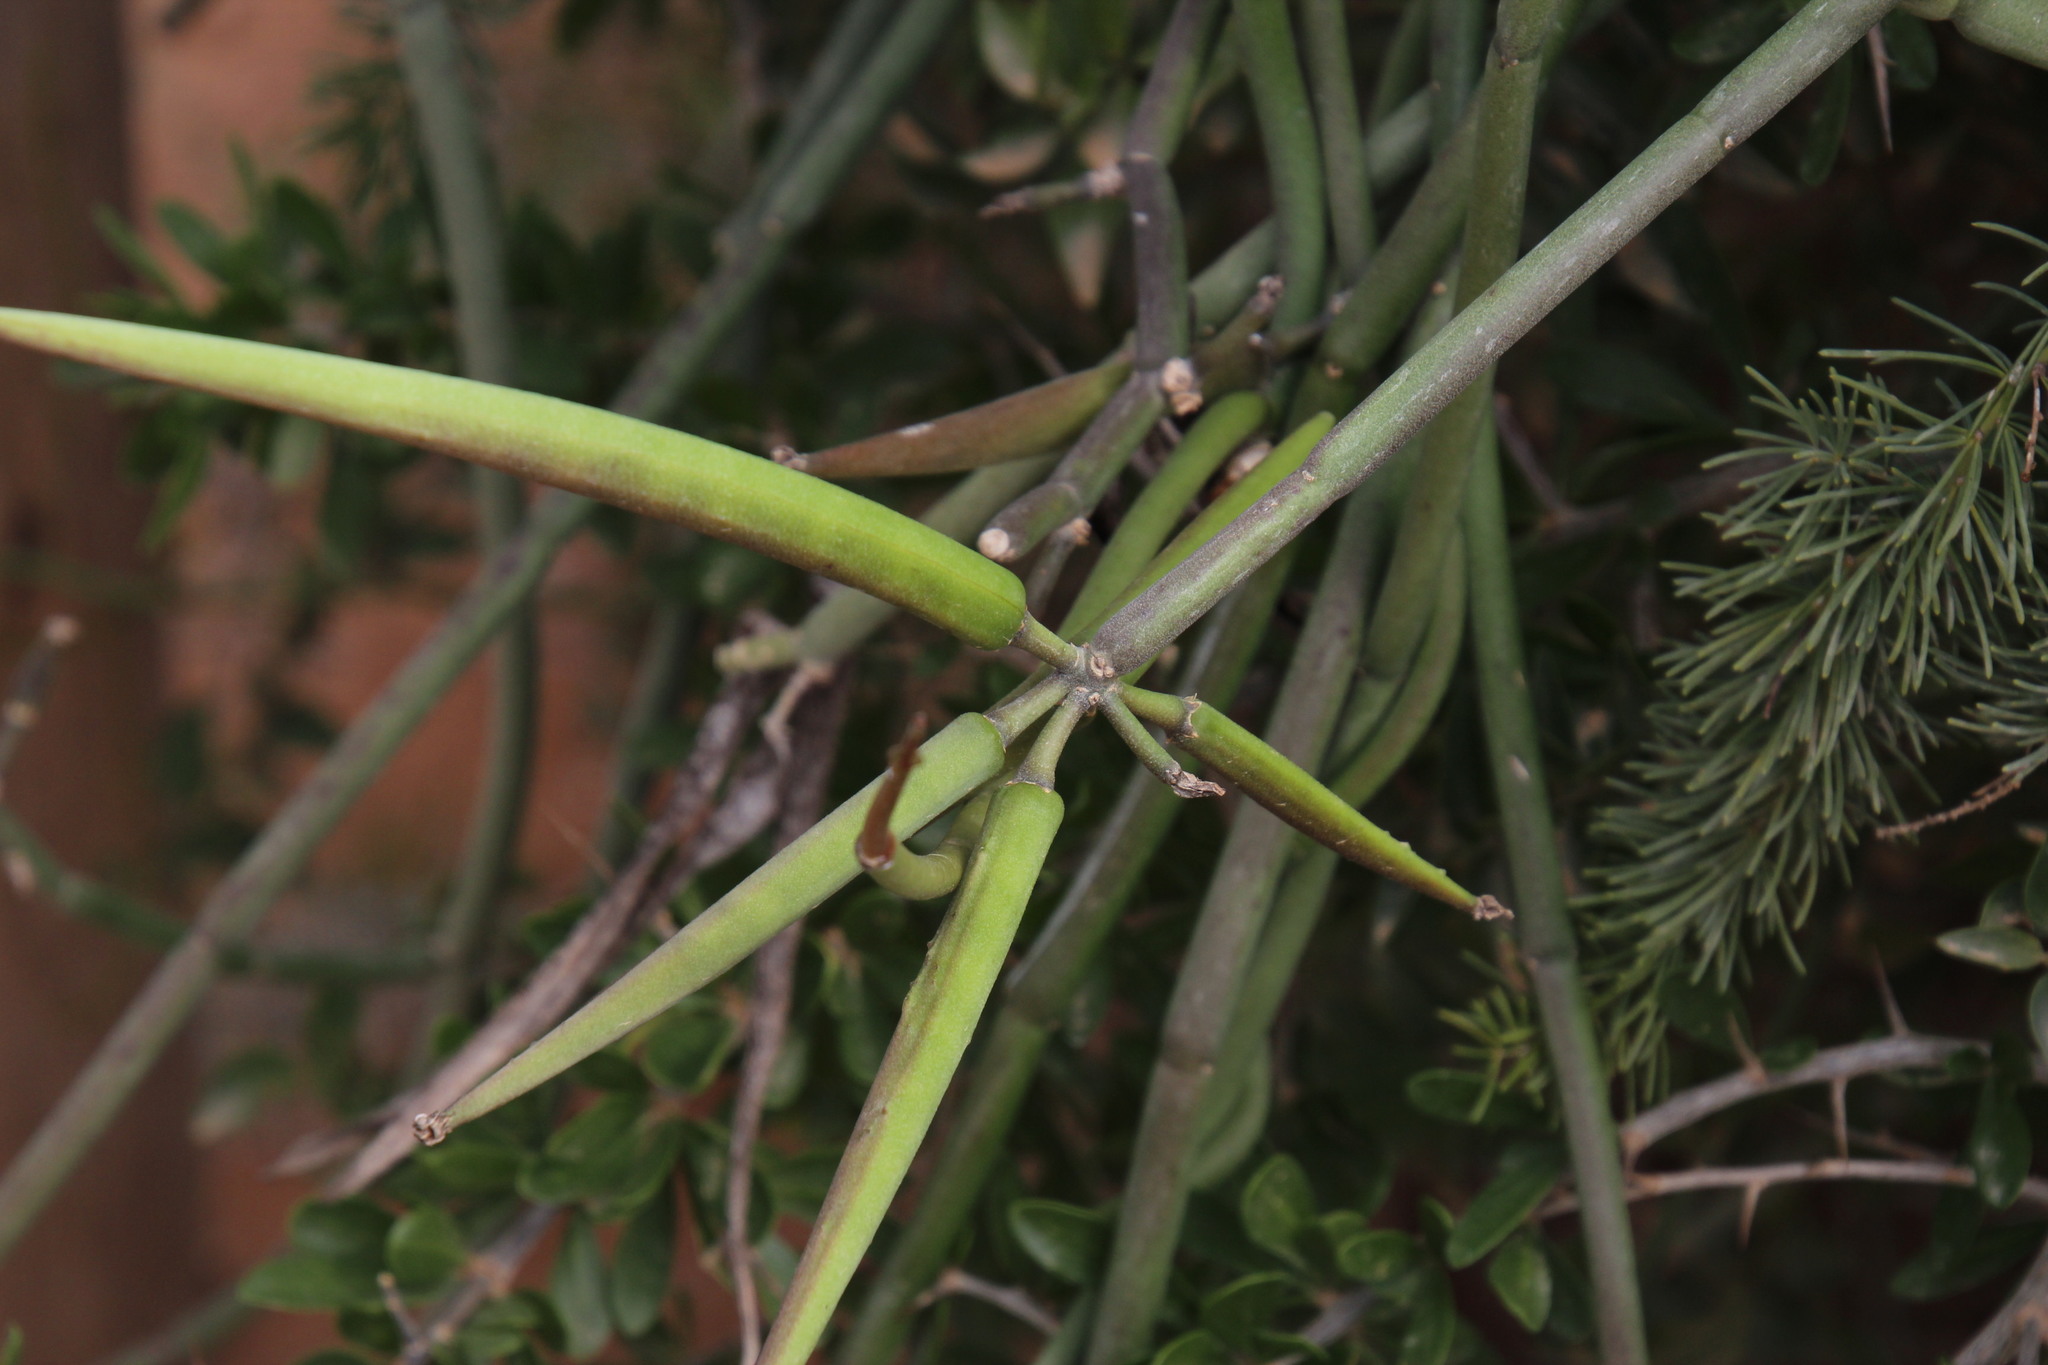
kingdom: Plantae
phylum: Tracheophyta
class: Magnoliopsida
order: Gentianales
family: Apocynaceae
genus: Cynanchum
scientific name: Cynanchum viminale
